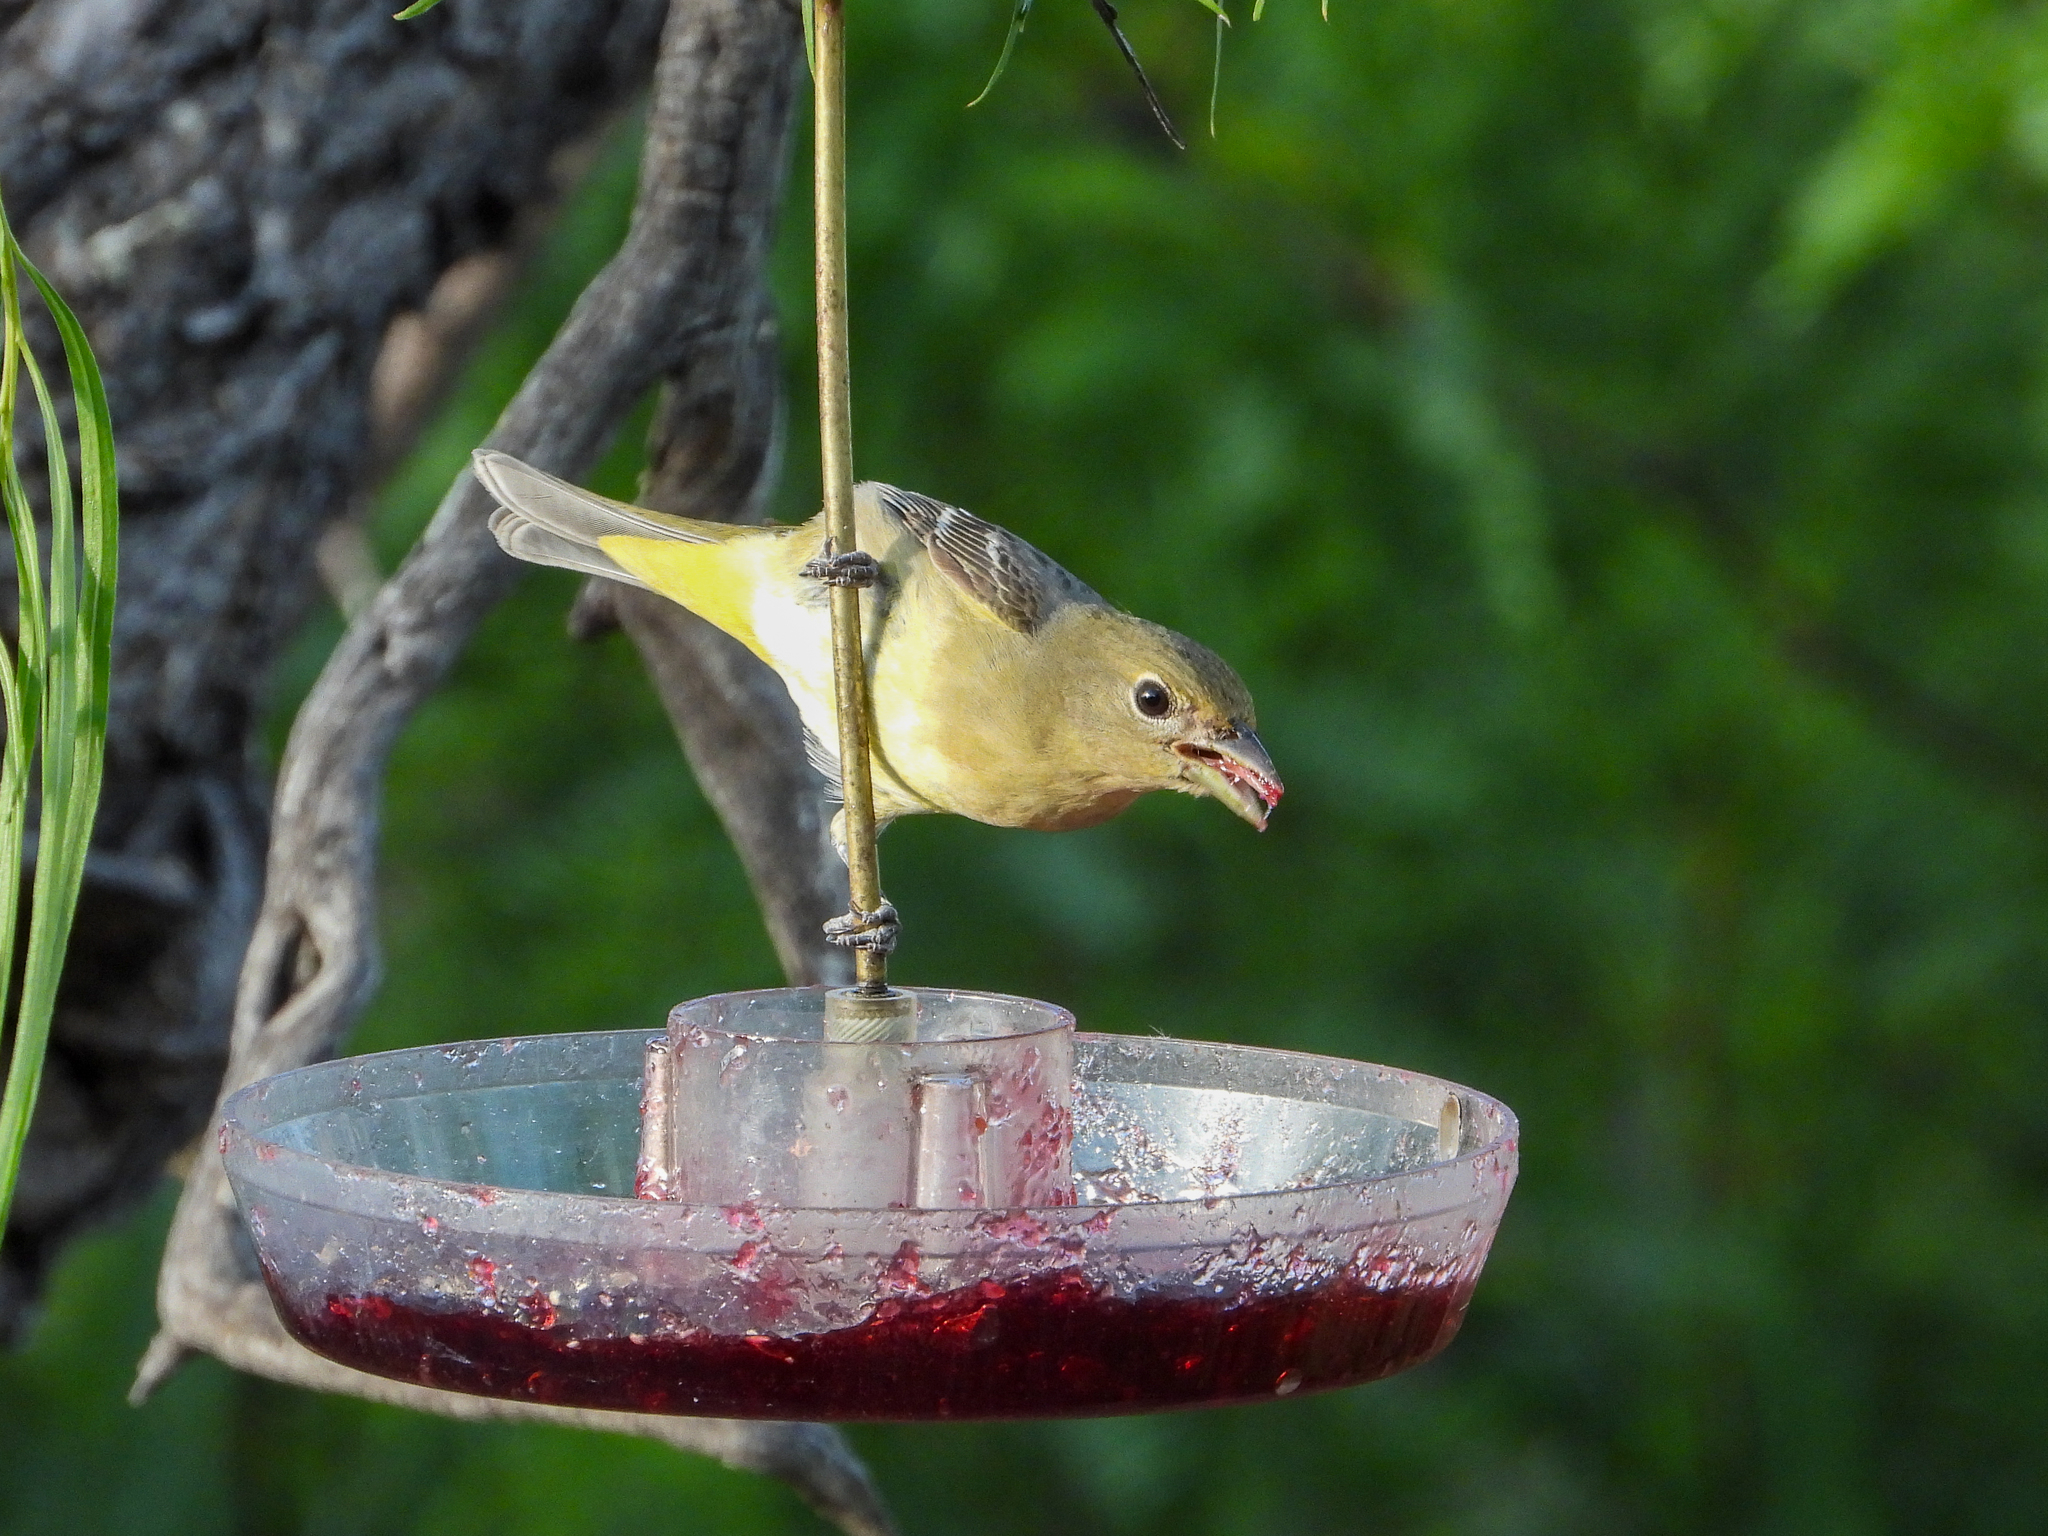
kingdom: Animalia
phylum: Chordata
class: Aves
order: Passeriformes
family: Cardinalidae
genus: Piranga
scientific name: Piranga ludoviciana
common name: Western tanager
